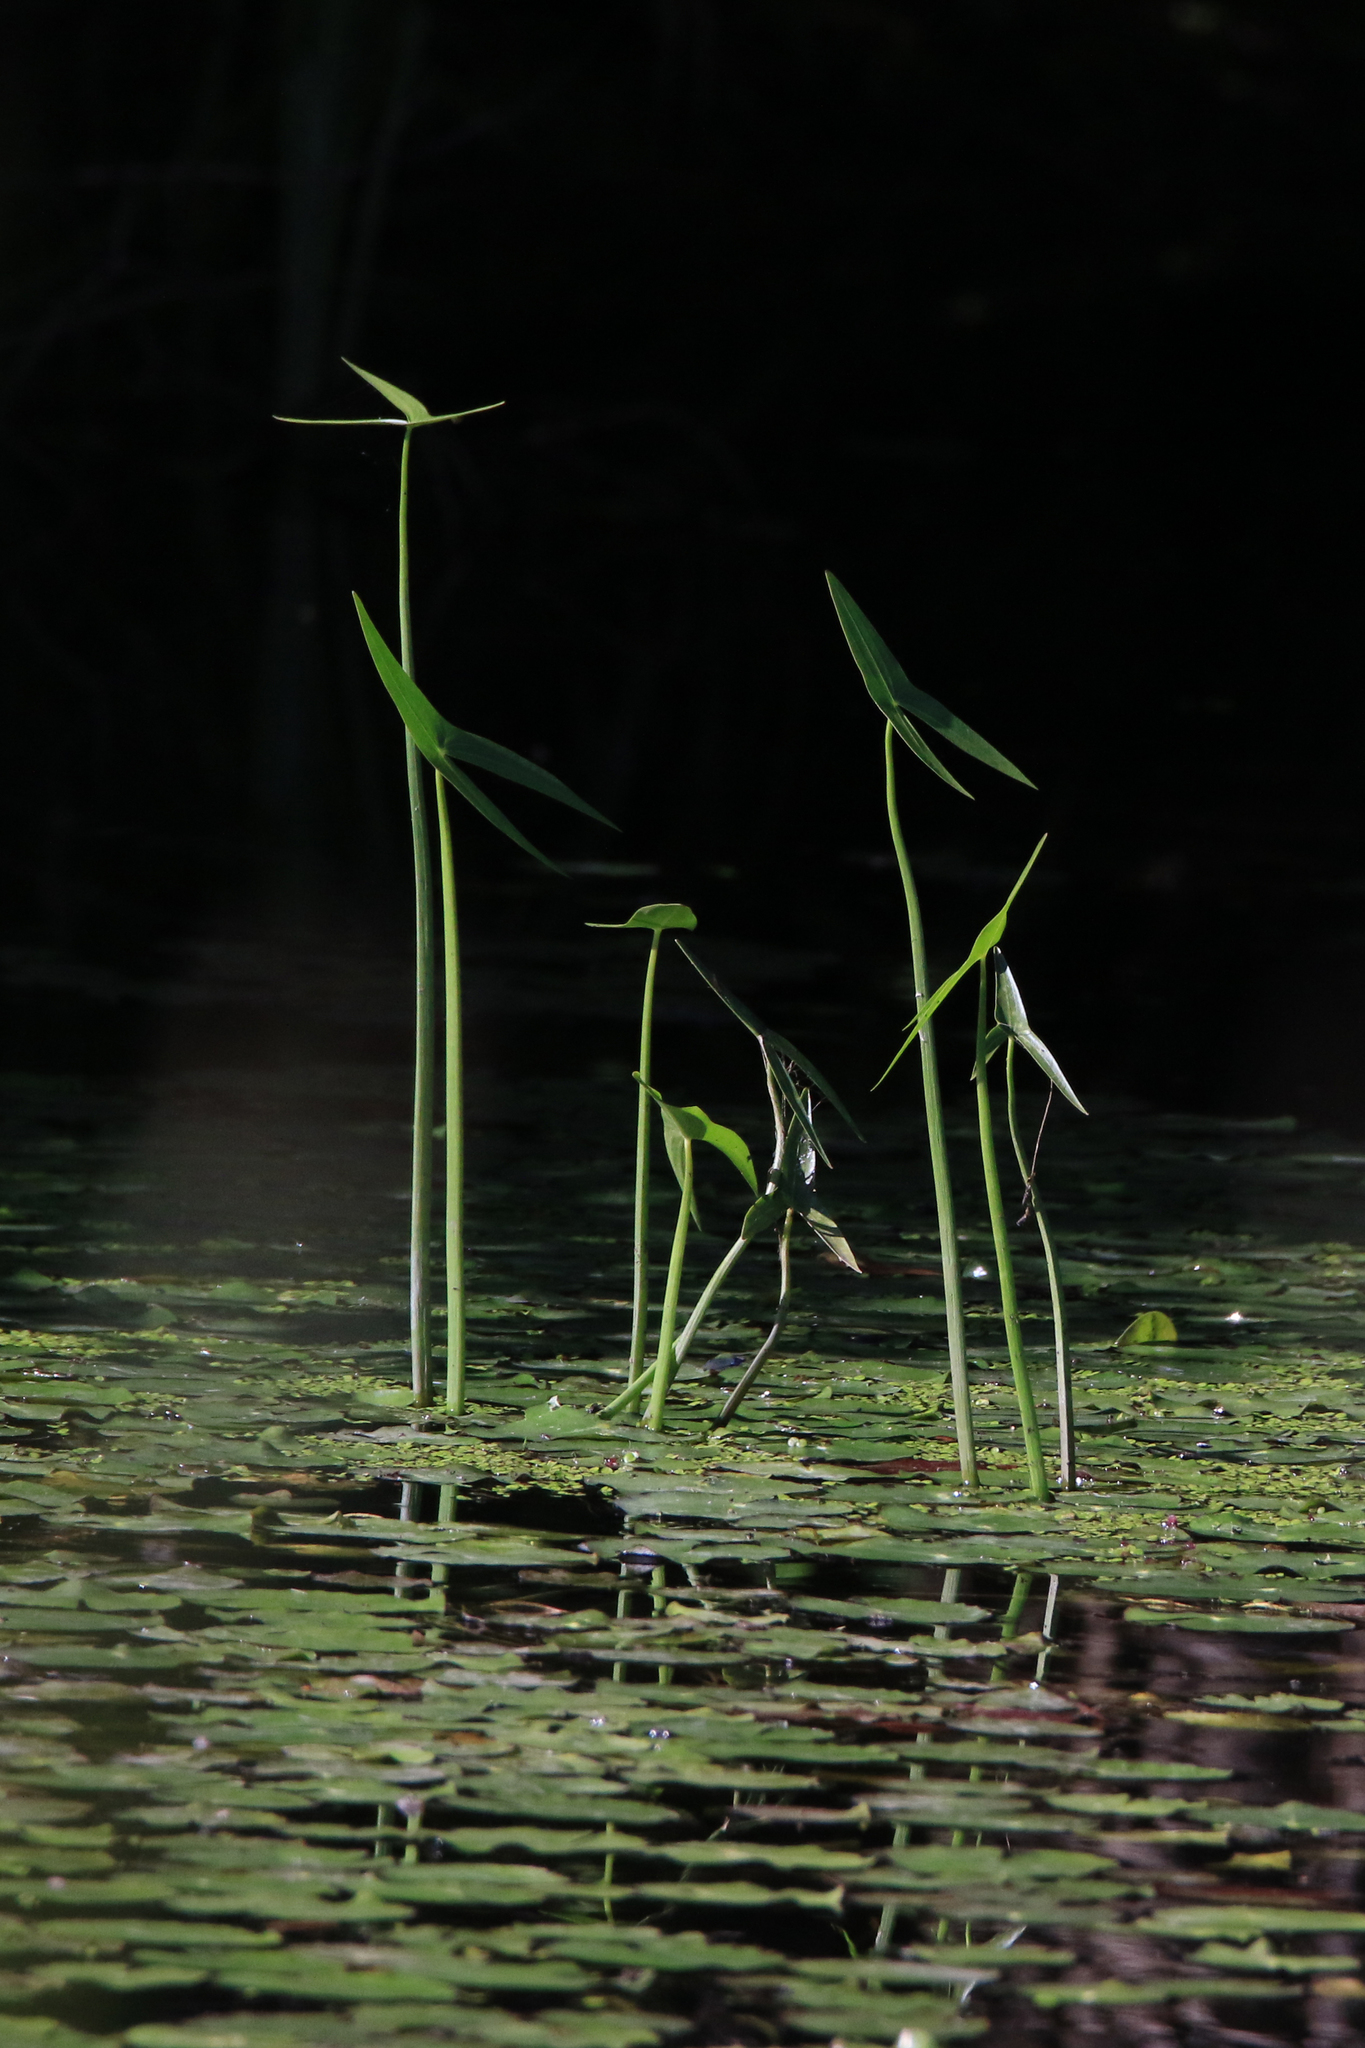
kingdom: Plantae
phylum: Tracheophyta
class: Liliopsida
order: Alismatales
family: Alismataceae
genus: Sagittaria
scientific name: Sagittaria sagittifolia
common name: Arrowhead
